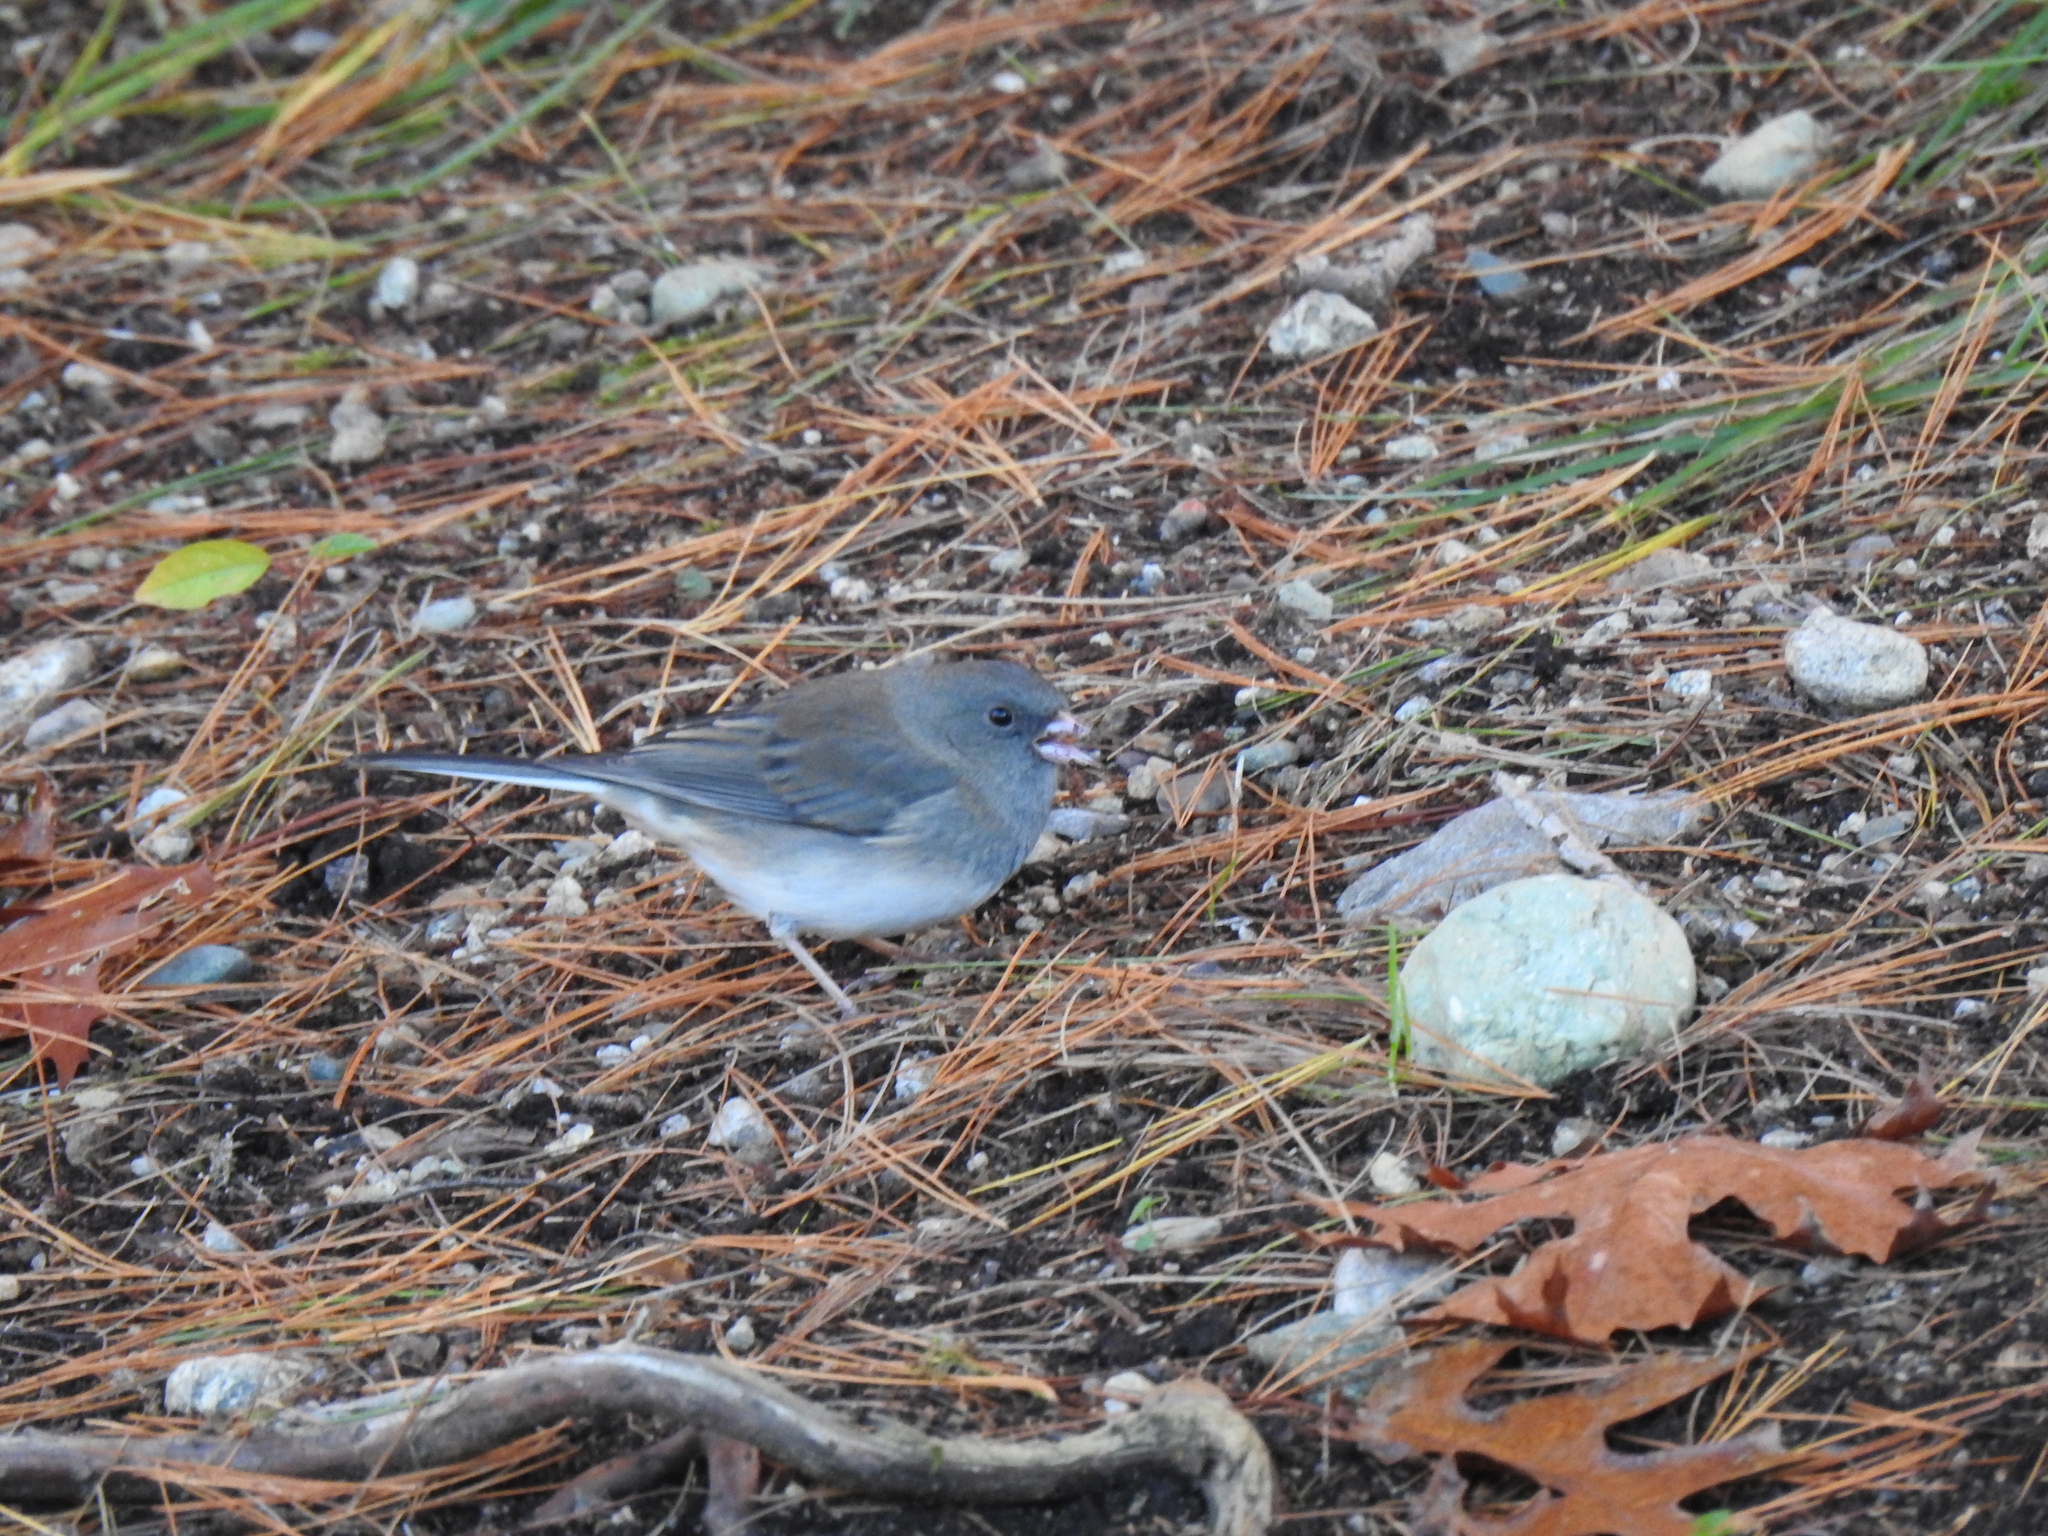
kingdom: Animalia
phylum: Chordata
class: Aves
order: Passeriformes
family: Passerellidae
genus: Junco
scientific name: Junco hyemalis
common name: Dark-eyed junco
